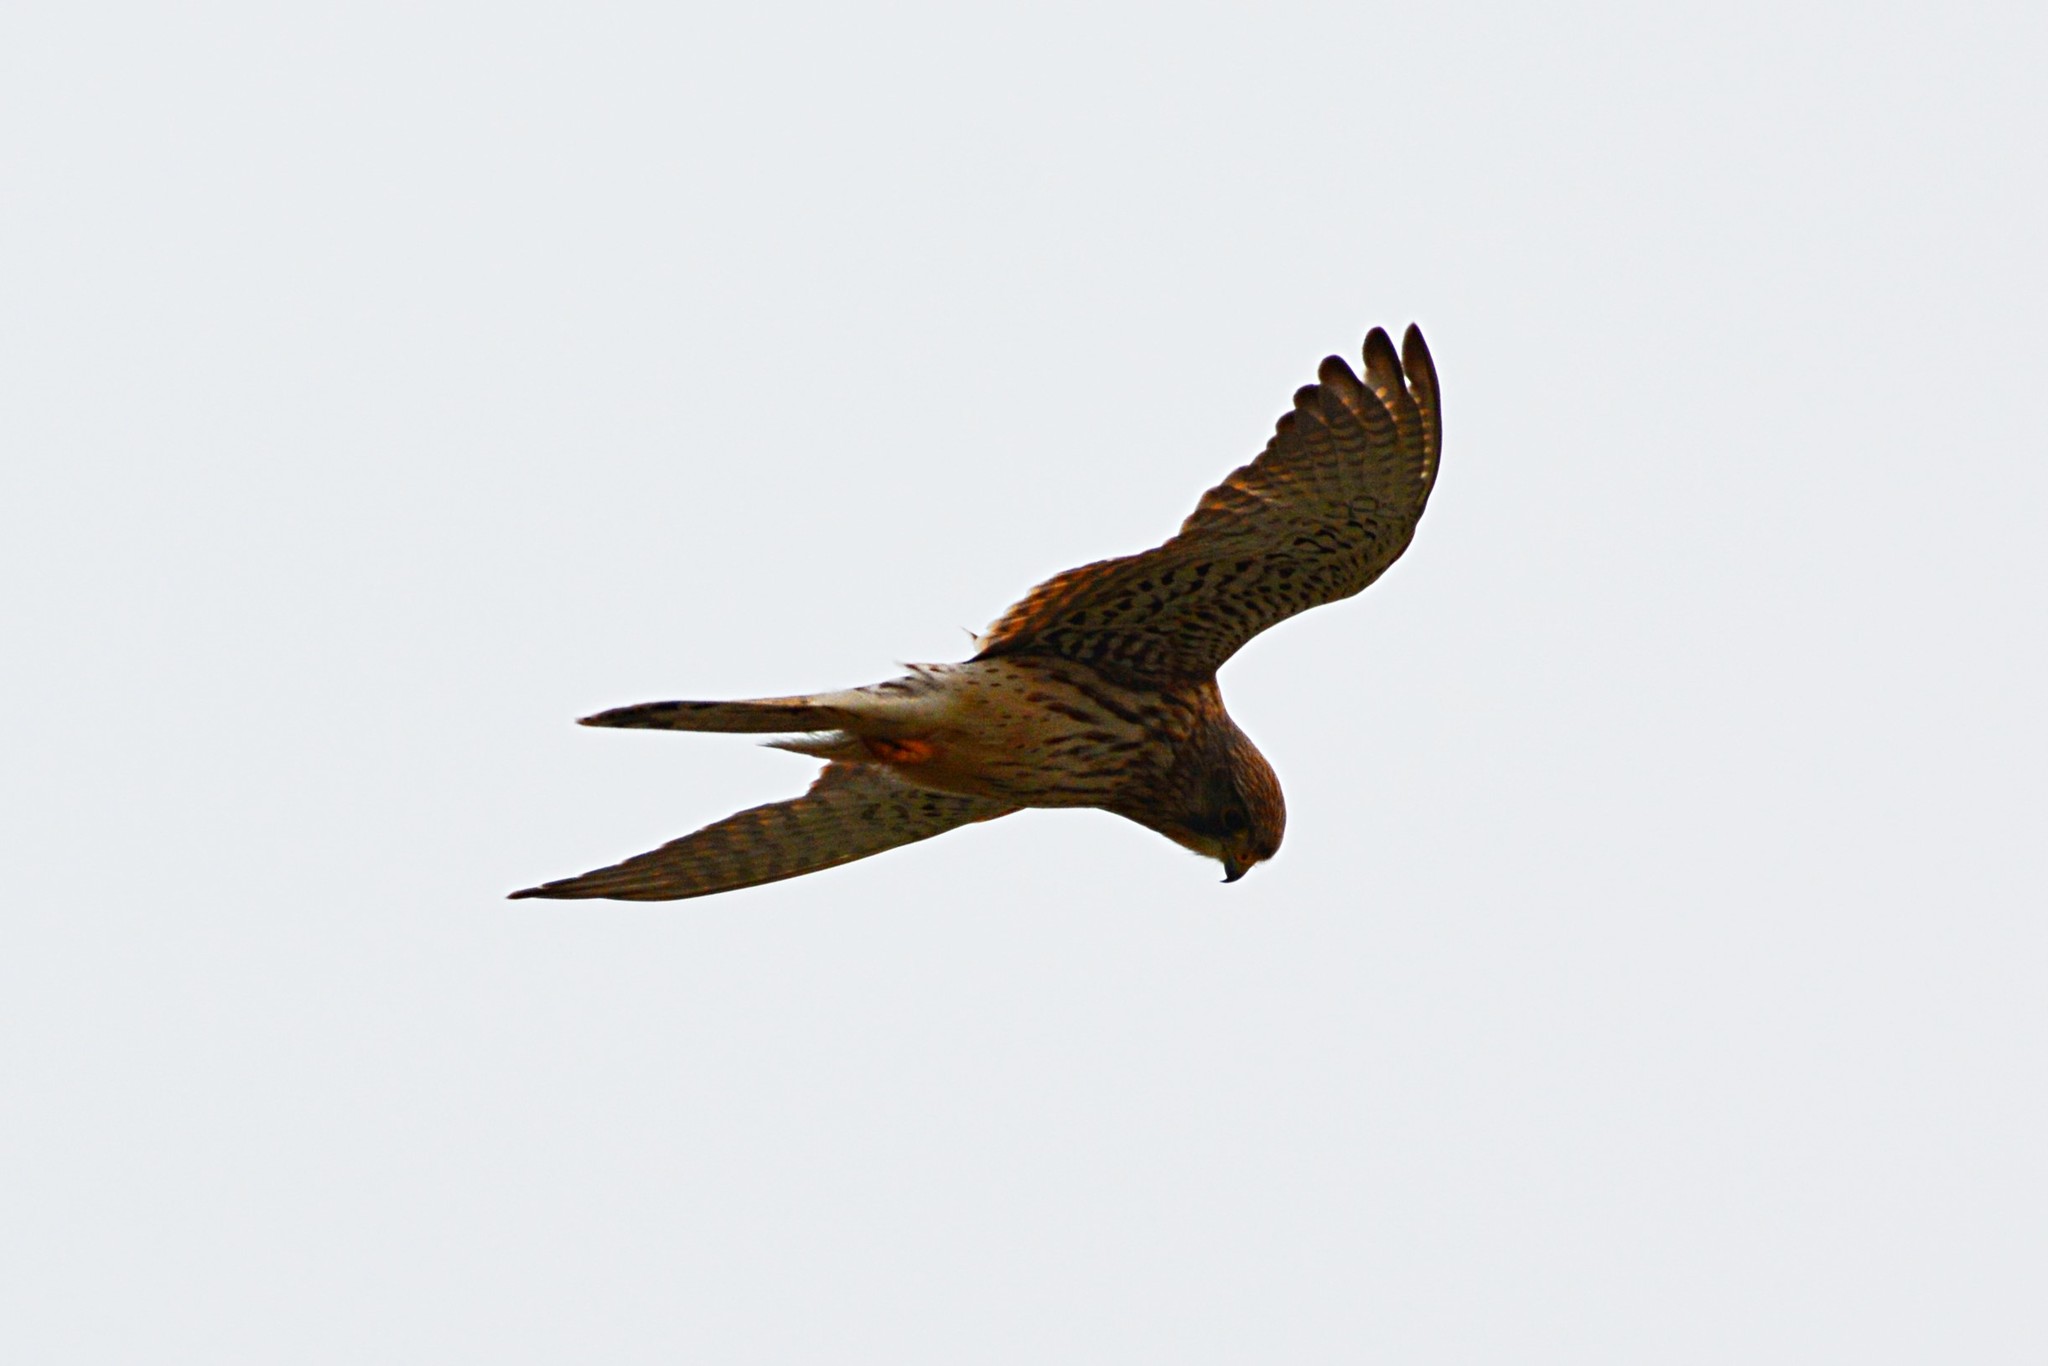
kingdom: Animalia
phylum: Chordata
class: Aves
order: Falconiformes
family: Falconidae
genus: Falco
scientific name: Falco tinnunculus
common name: Common kestrel
